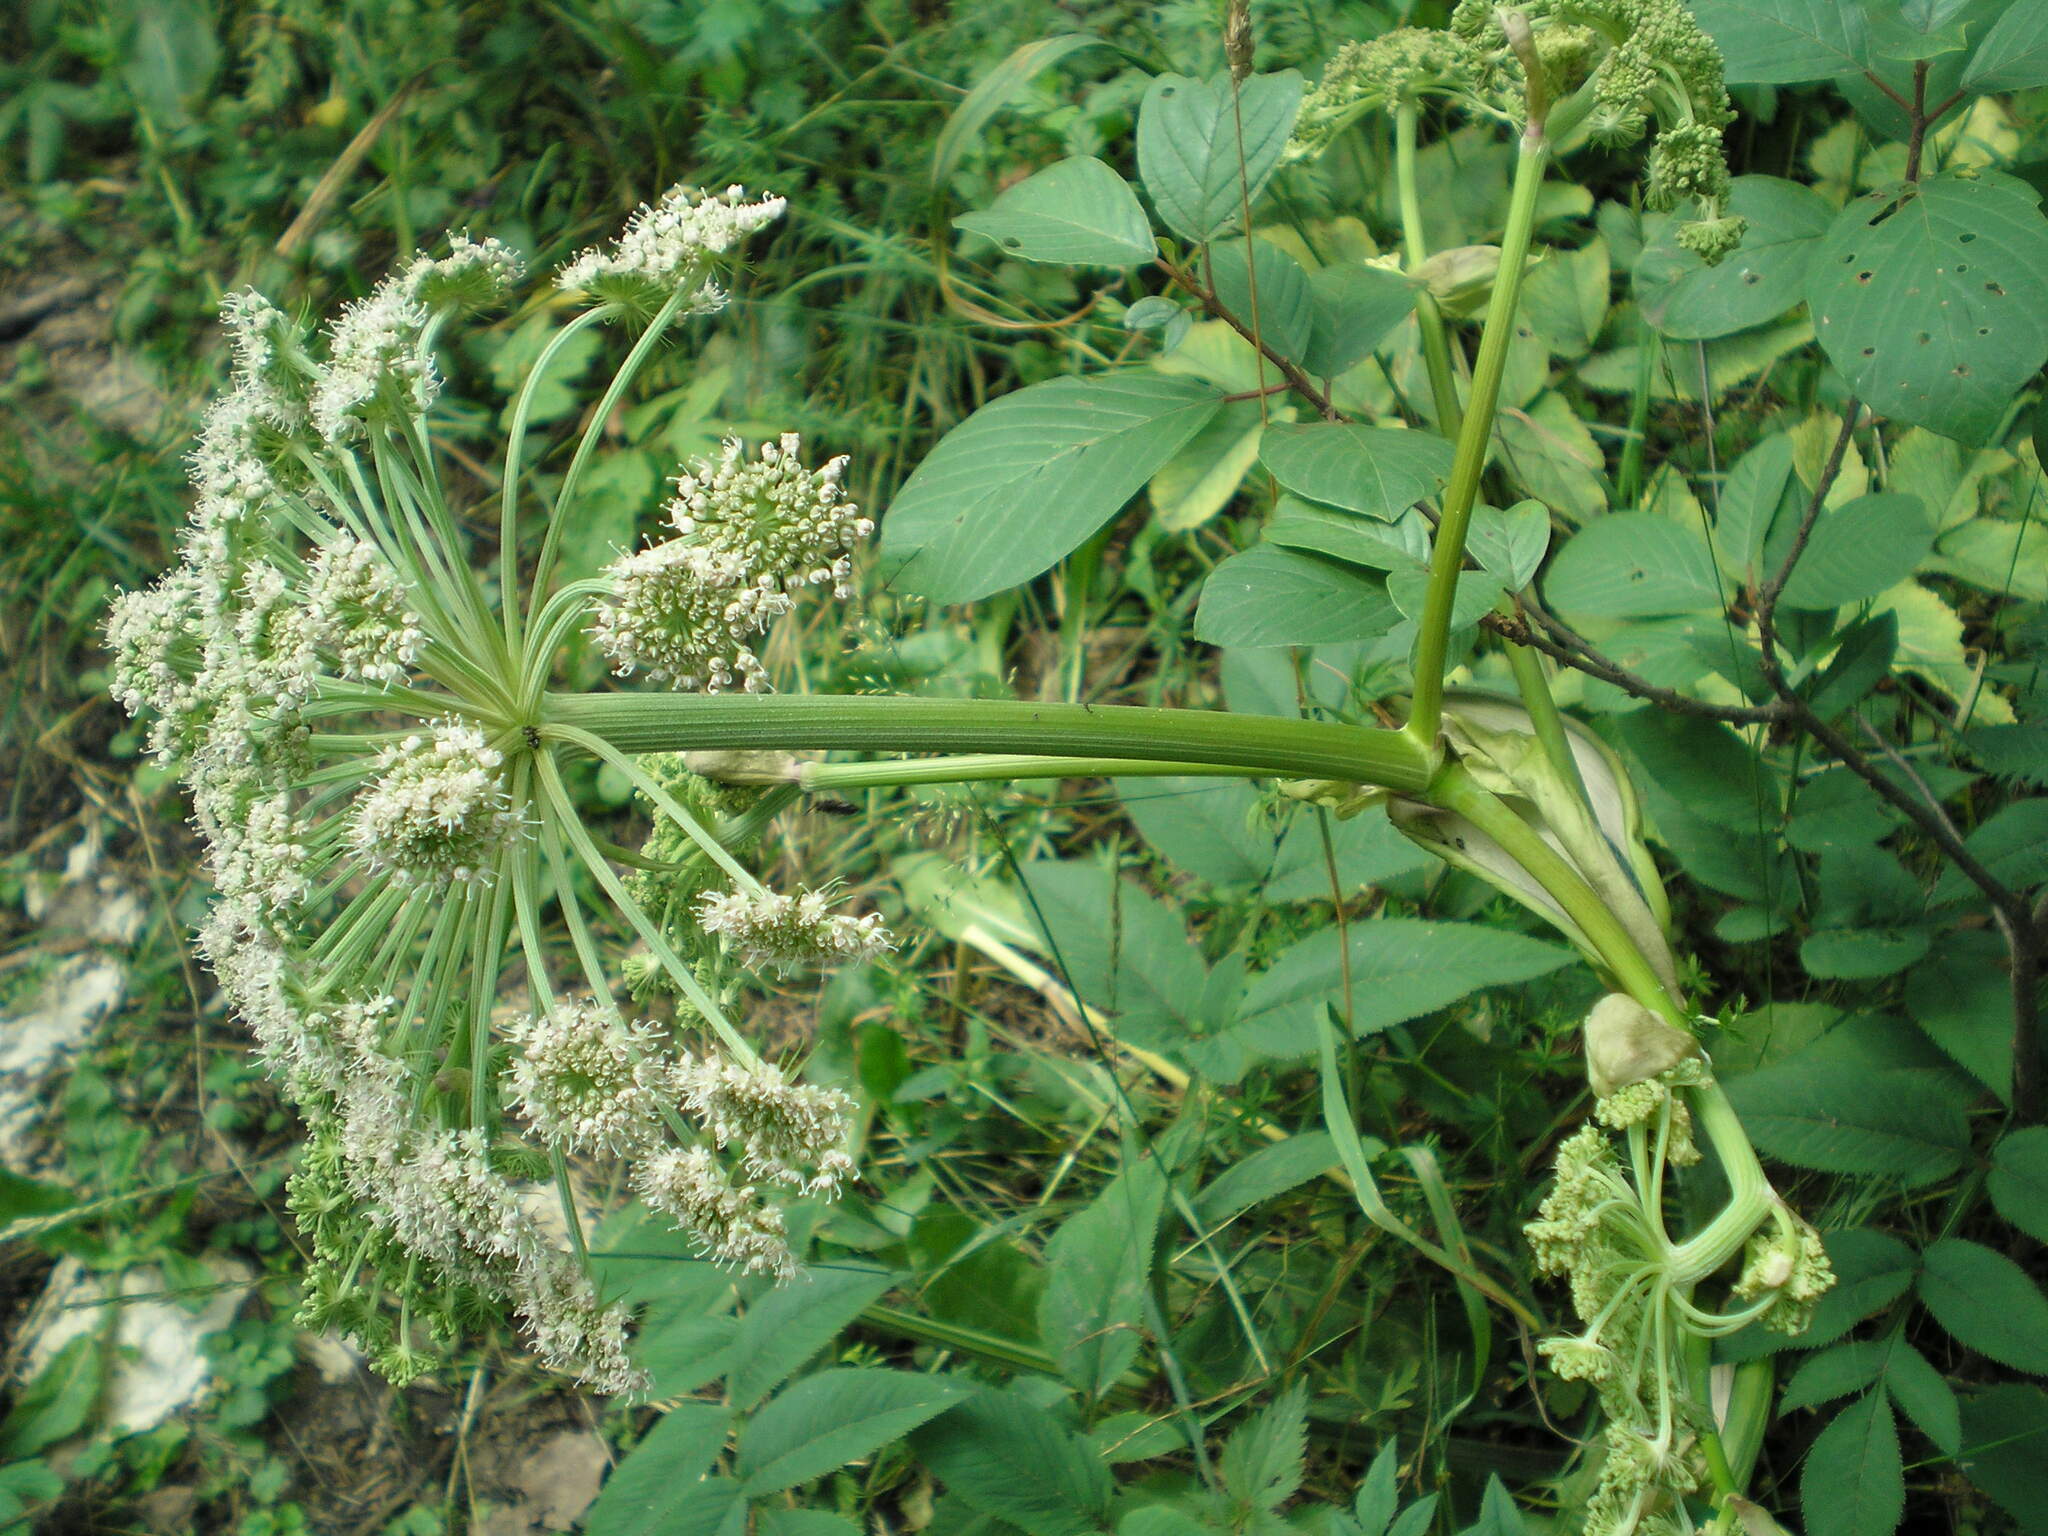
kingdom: Plantae
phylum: Tracheophyta
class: Magnoliopsida
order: Apiales
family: Apiaceae
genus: Angelica
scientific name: Angelica sylvestris
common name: Wild angelica
